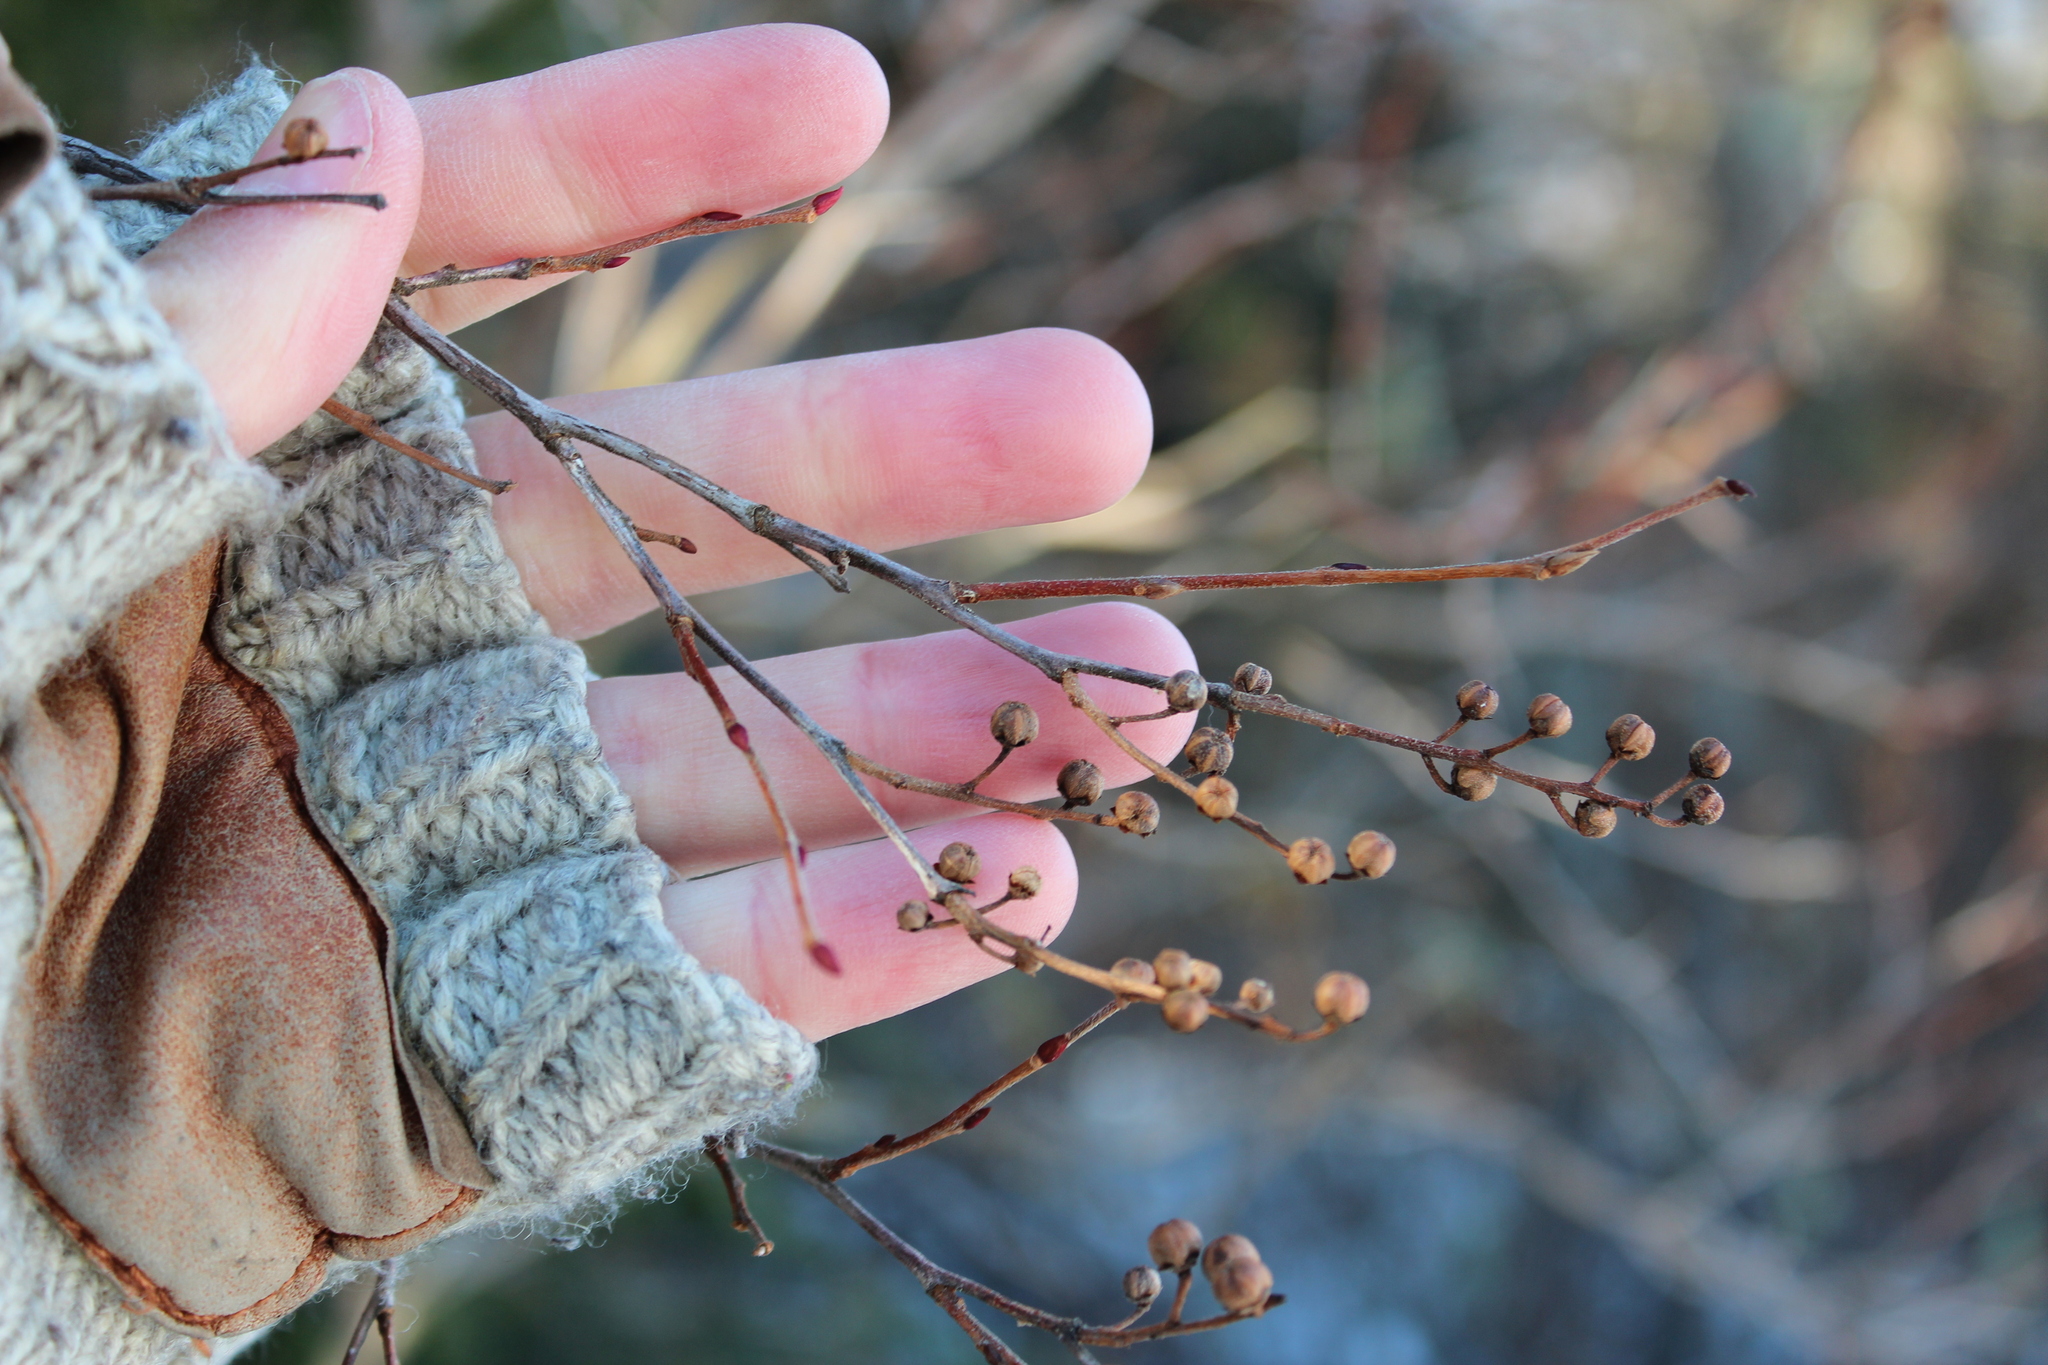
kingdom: Plantae
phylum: Tracheophyta
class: Magnoliopsida
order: Ericales
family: Ericaceae
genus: Lyonia
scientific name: Lyonia ligustrina
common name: Maleberry
